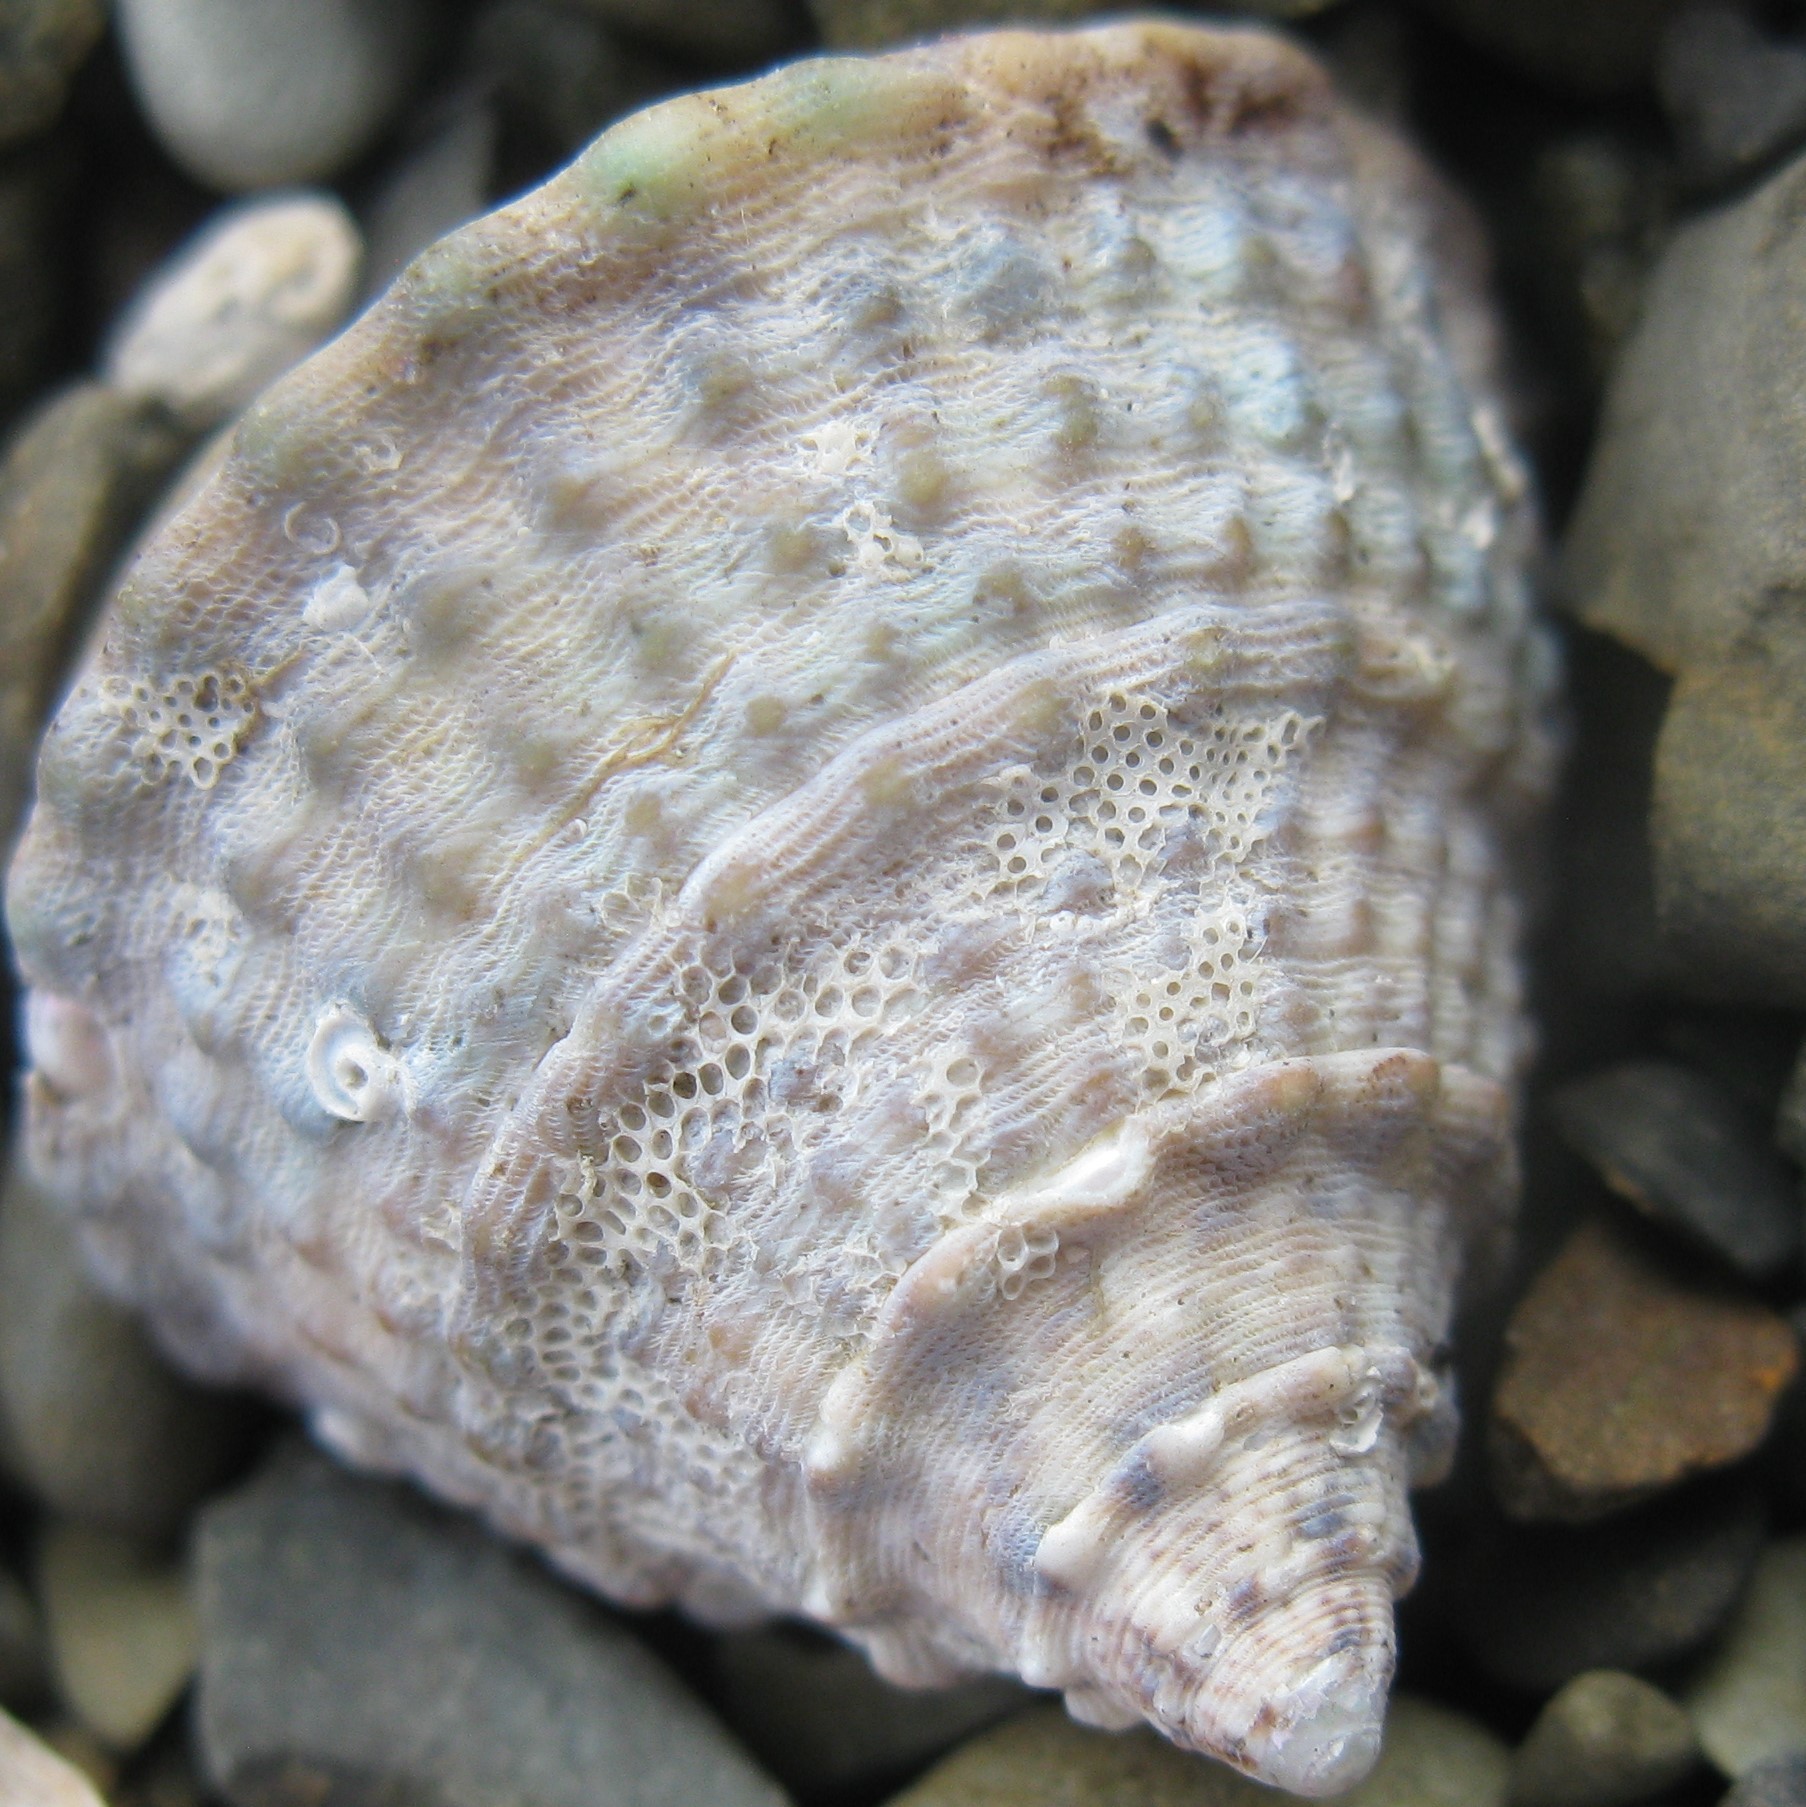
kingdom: Animalia
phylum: Mollusca
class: Gastropoda
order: Trochida
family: Trochidae
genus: Coelotrochus
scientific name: Coelotrochus viridis
